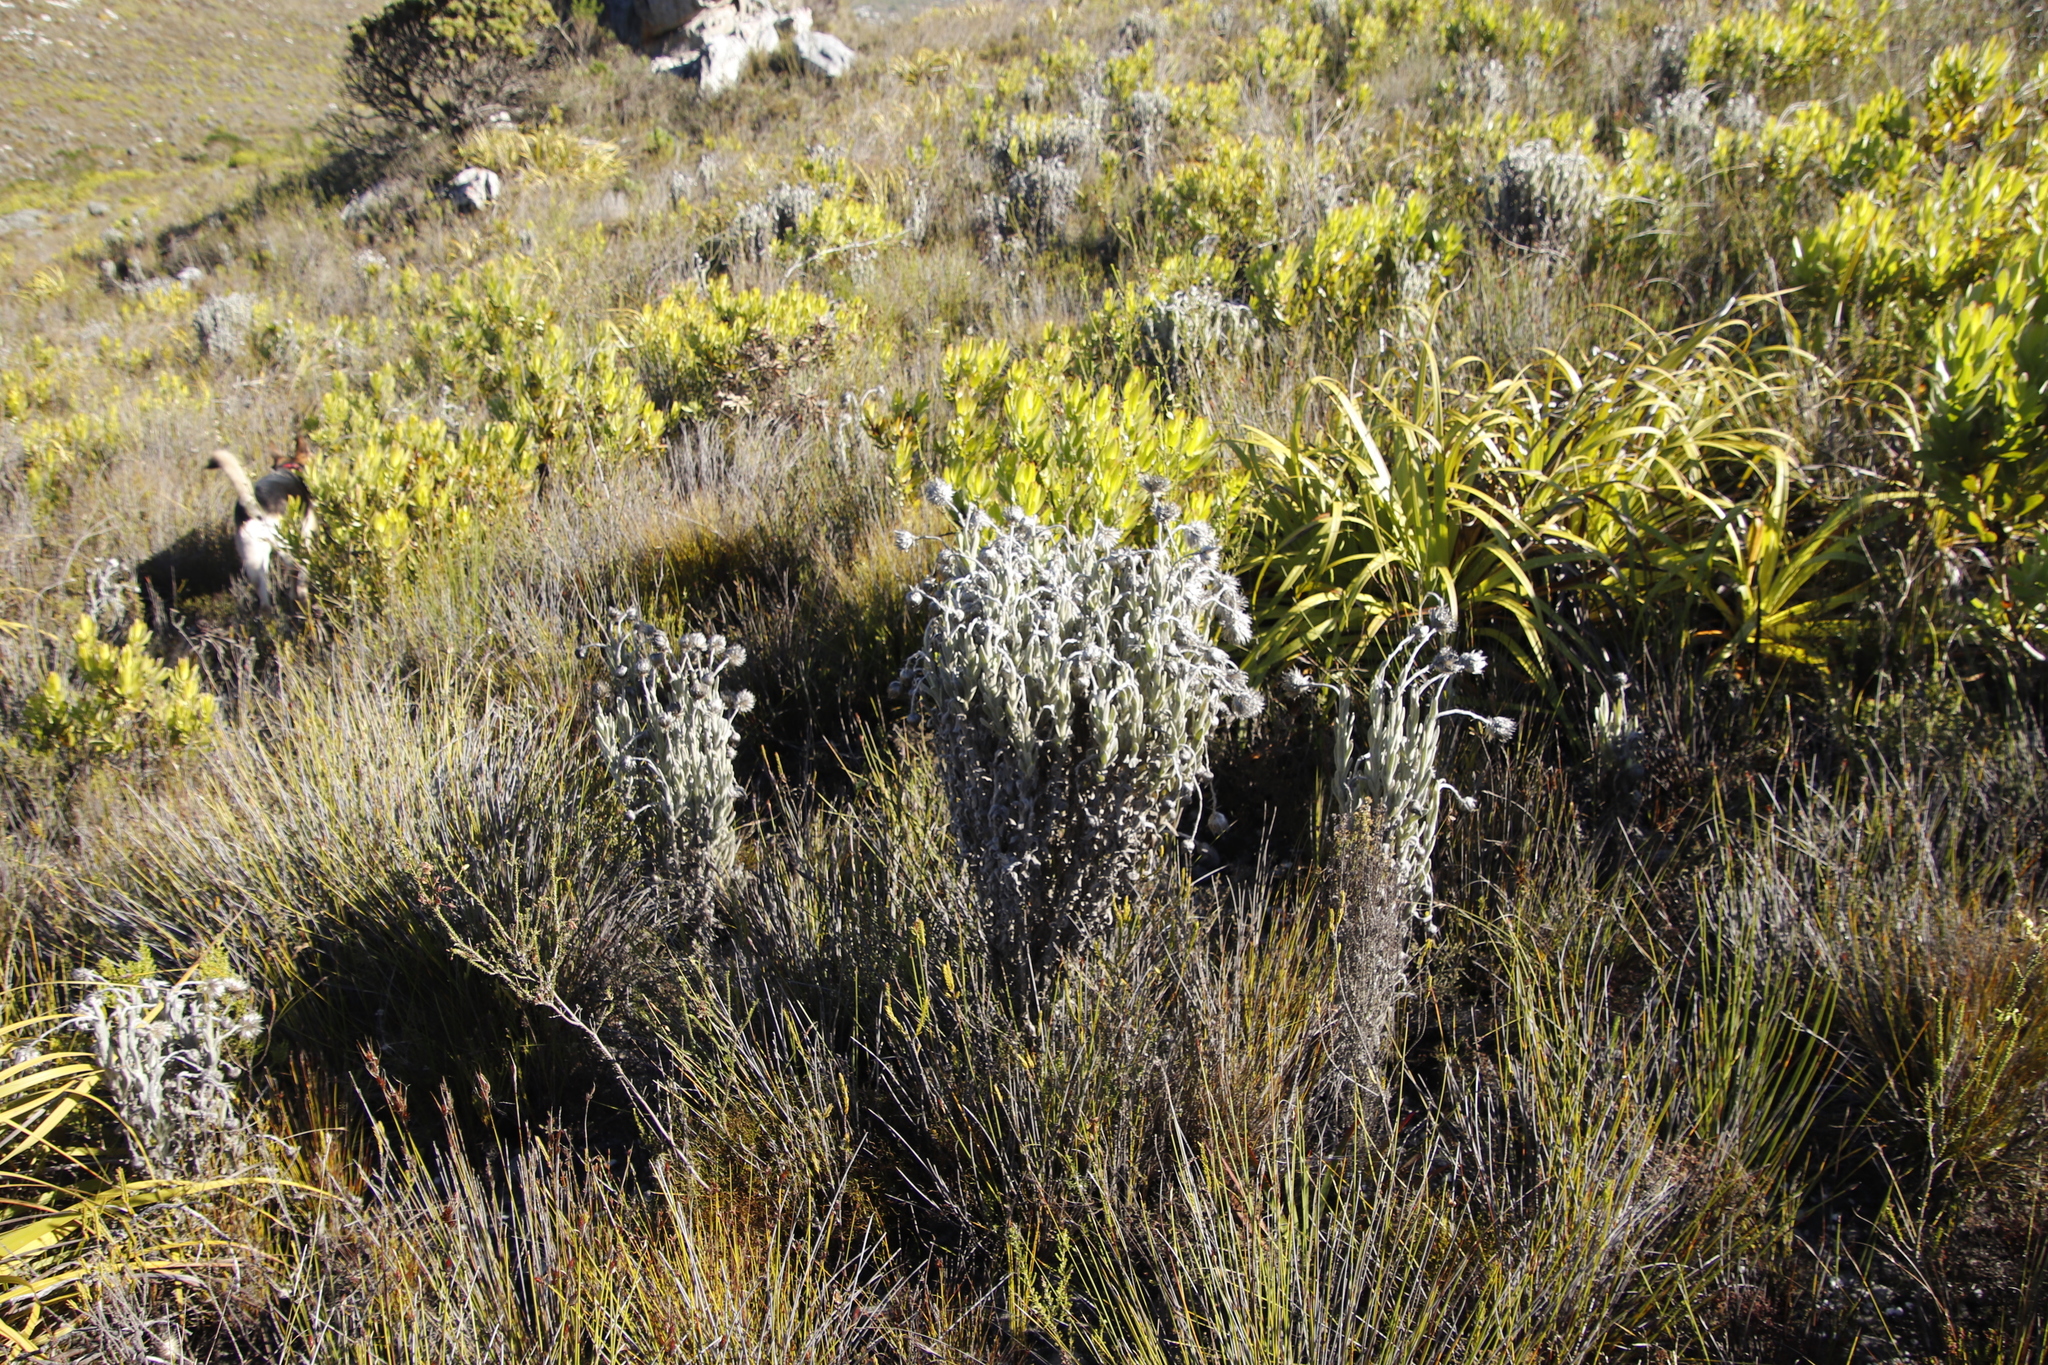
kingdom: Plantae
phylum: Tracheophyta
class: Magnoliopsida
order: Asterales
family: Asteraceae
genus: Syncarpha
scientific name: Syncarpha vestita
